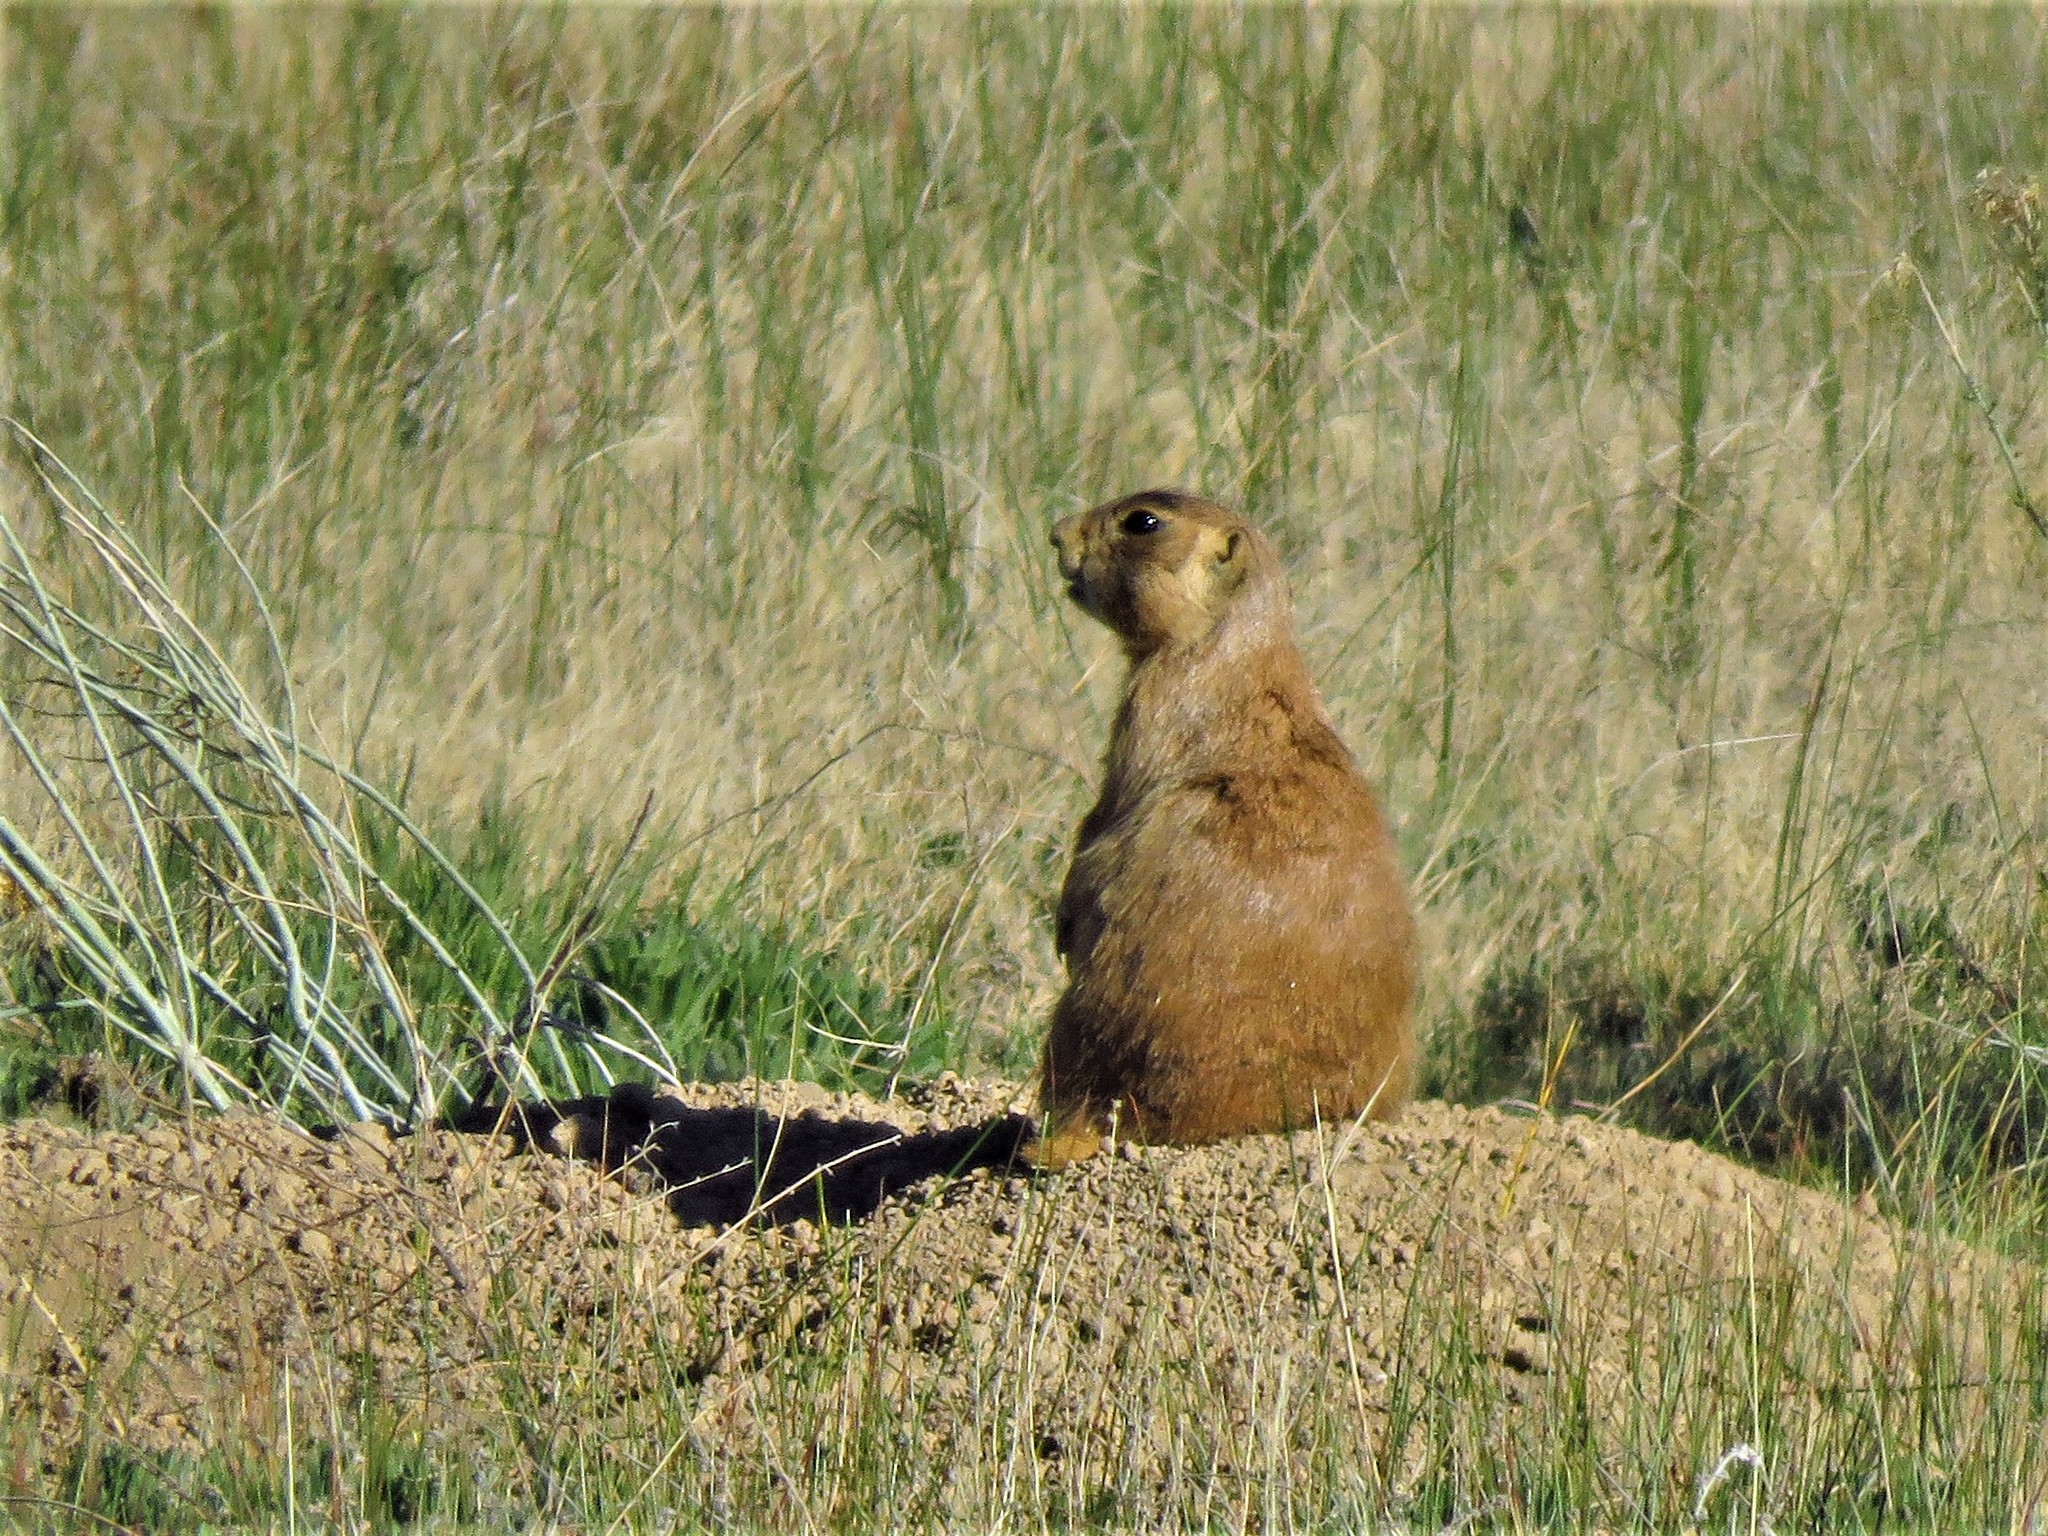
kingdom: Animalia
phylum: Chordata
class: Mammalia
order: Rodentia
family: Sciuridae
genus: Cynomys
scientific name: Cynomys parvidens
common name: Utah prairie dog
